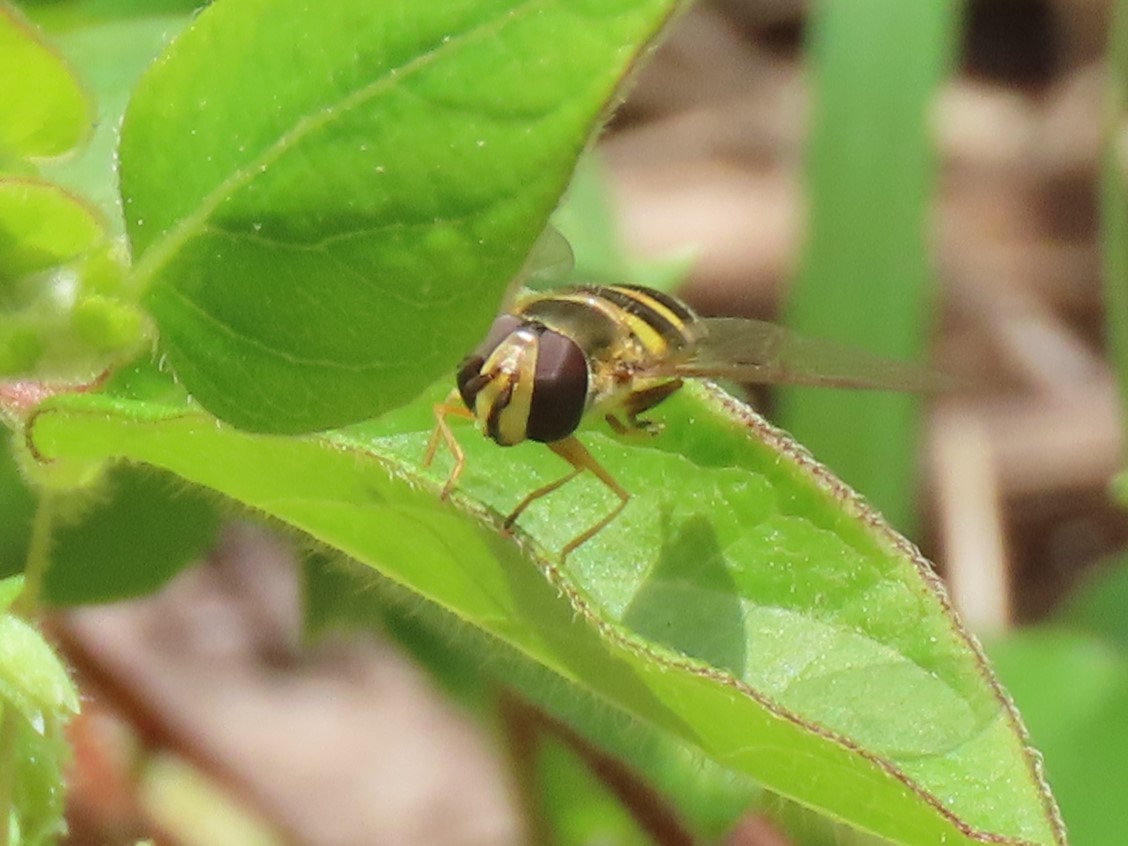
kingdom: Animalia
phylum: Arthropoda
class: Insecta
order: Diptera
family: Syrphidae
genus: Eupeodes
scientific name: Eupeodes
